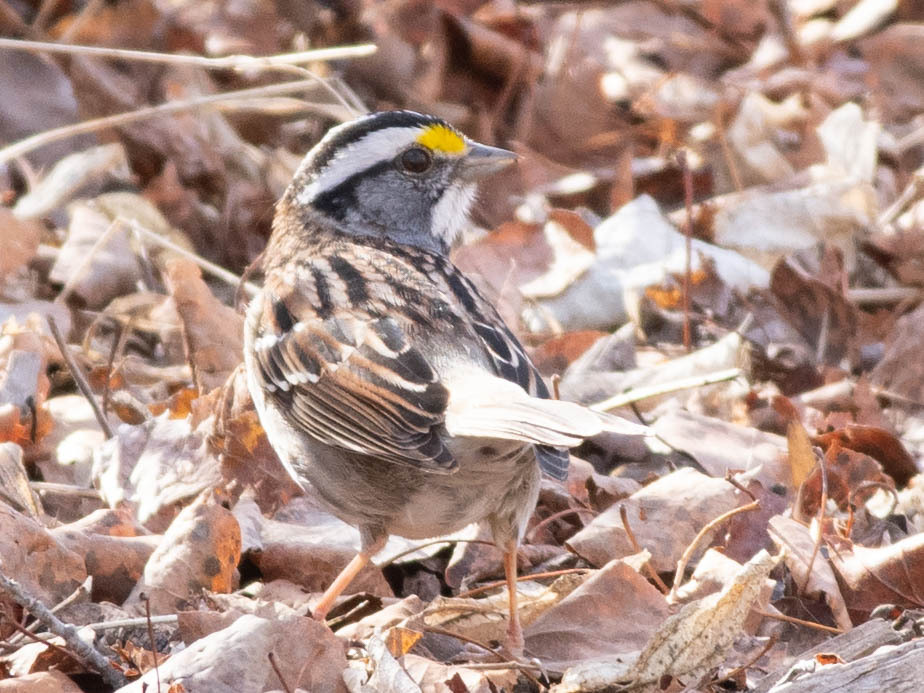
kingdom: Animalia
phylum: Chordata
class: Aves
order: Passeriformes
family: Passerellidae
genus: Zonotrichia
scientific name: Zonotrichia albicollis
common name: White-throated sparrow
